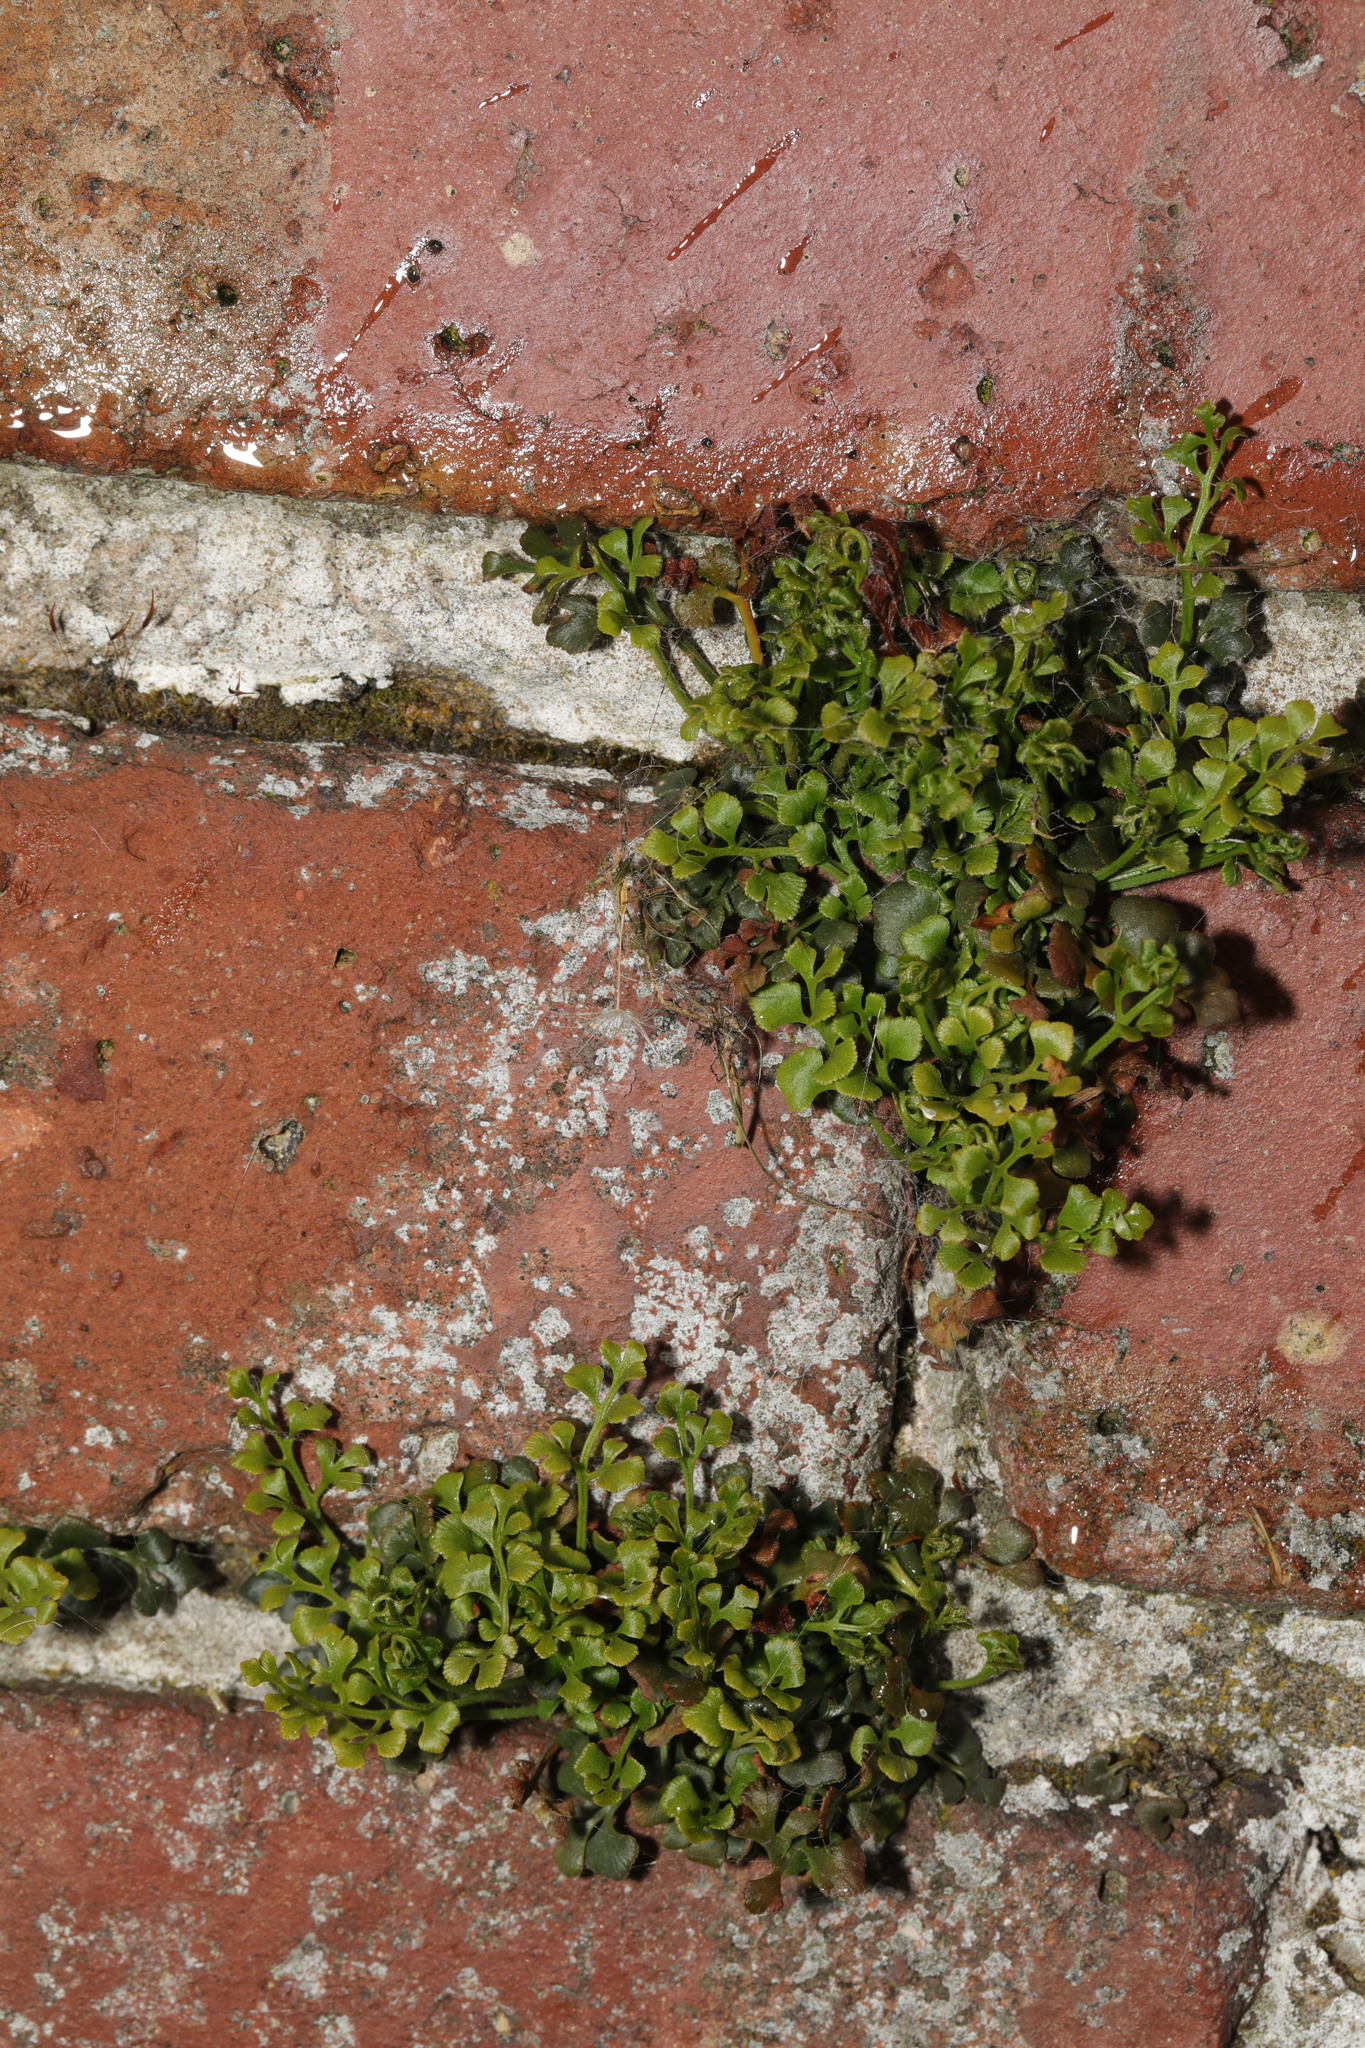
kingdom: Plantae
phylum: Tracheophyta
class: Polypodiopsida
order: Polypodiales
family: Aspleniaceae
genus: Asplenium
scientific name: Asplenium ruta-muraria
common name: Wall-rue
